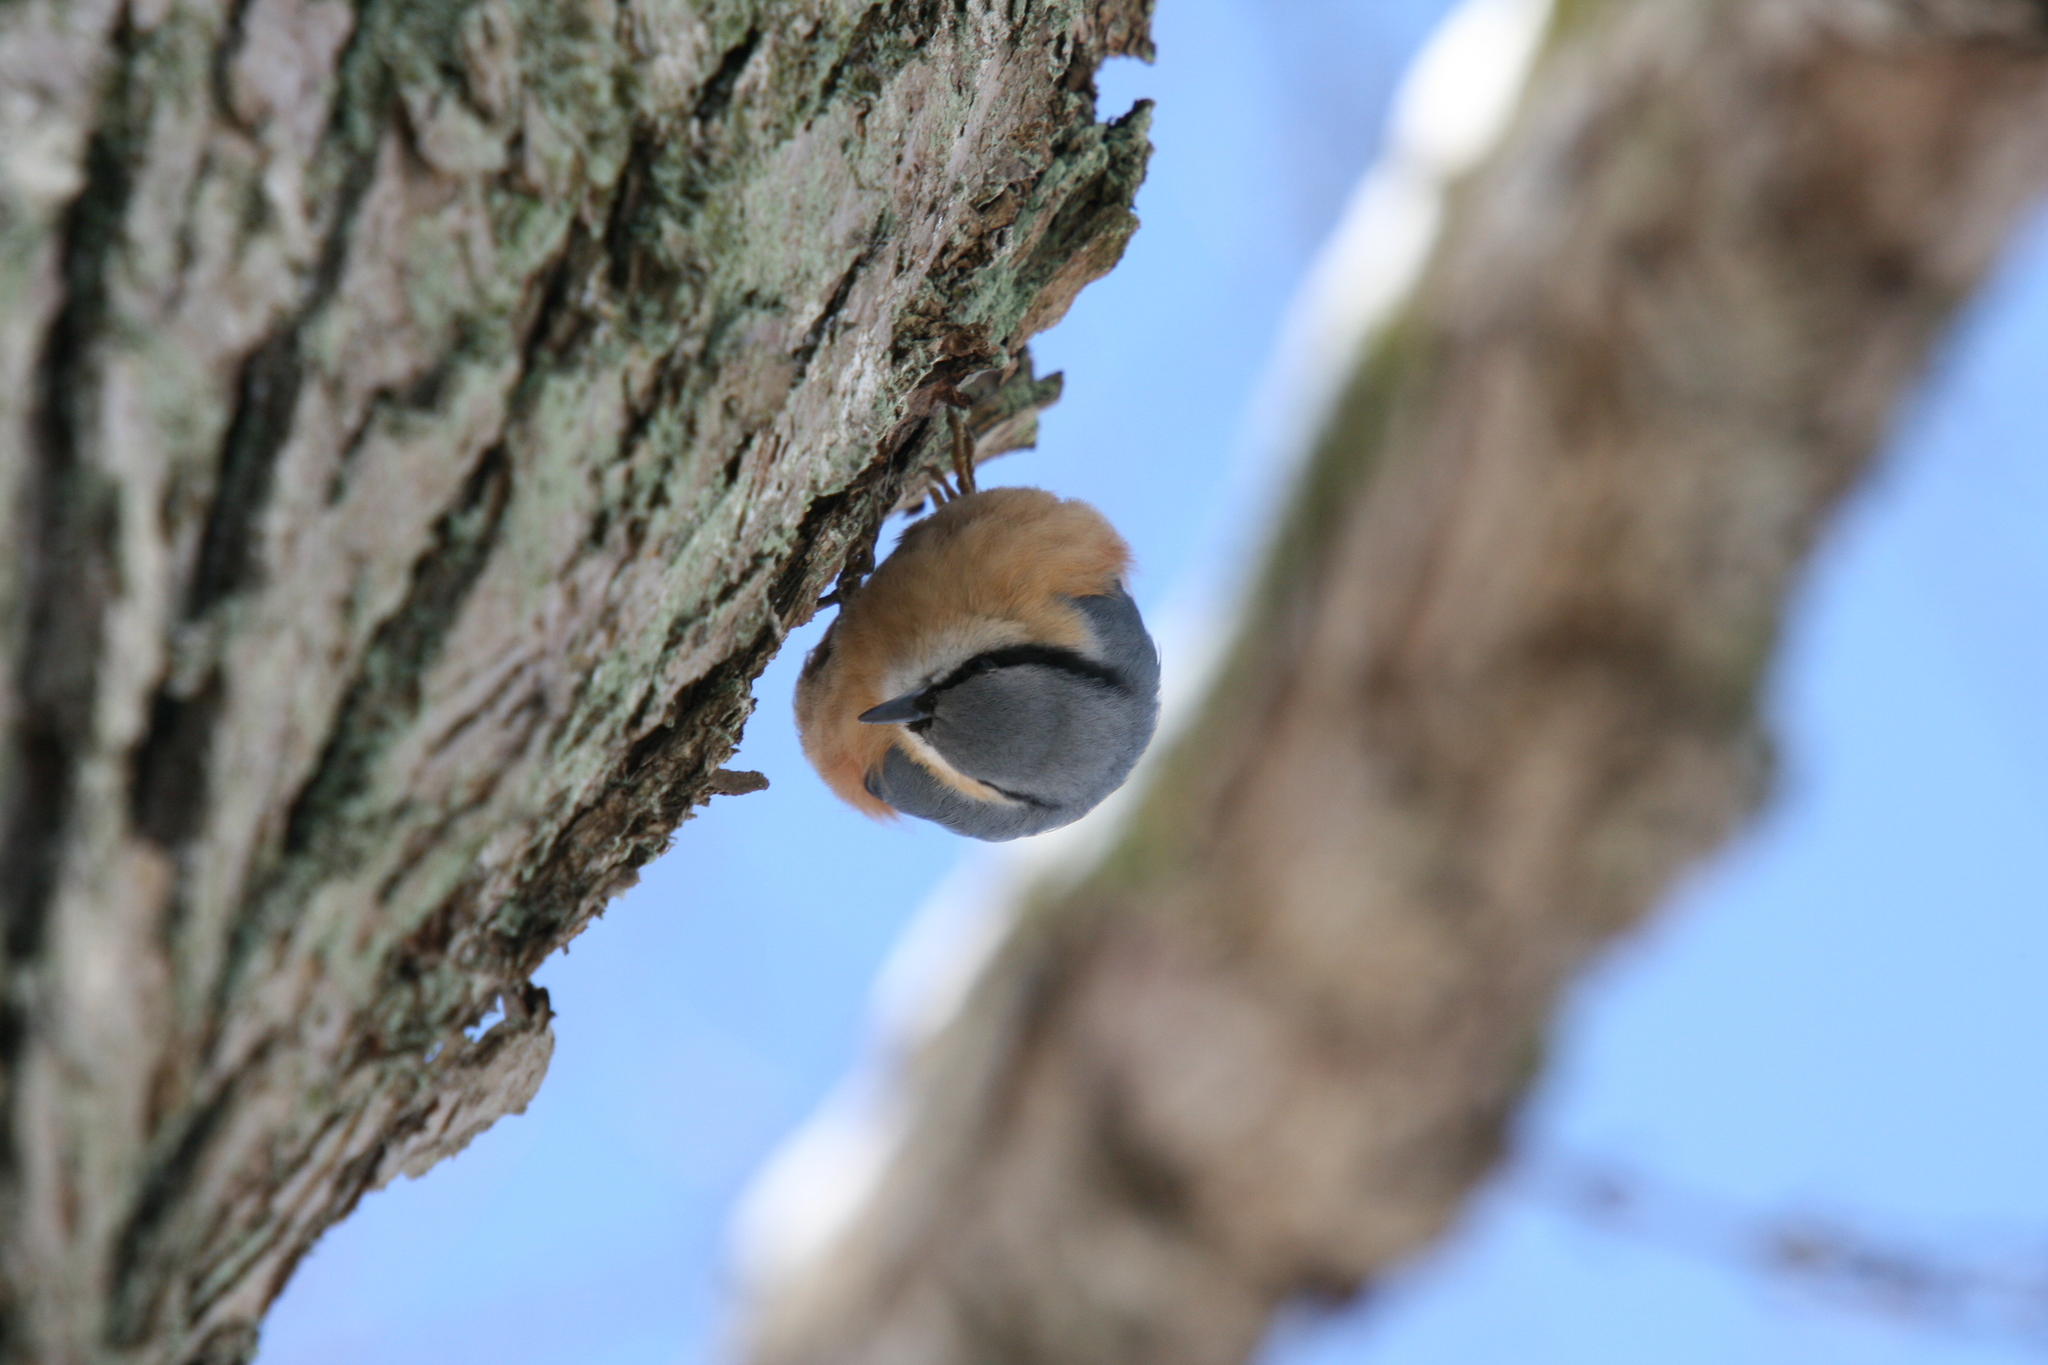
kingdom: Animalia
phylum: Chordata
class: Aves
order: Passeriformes
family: Sittidae
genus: Sitta
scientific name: Sitta europaea
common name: Eurasian nuthatch
